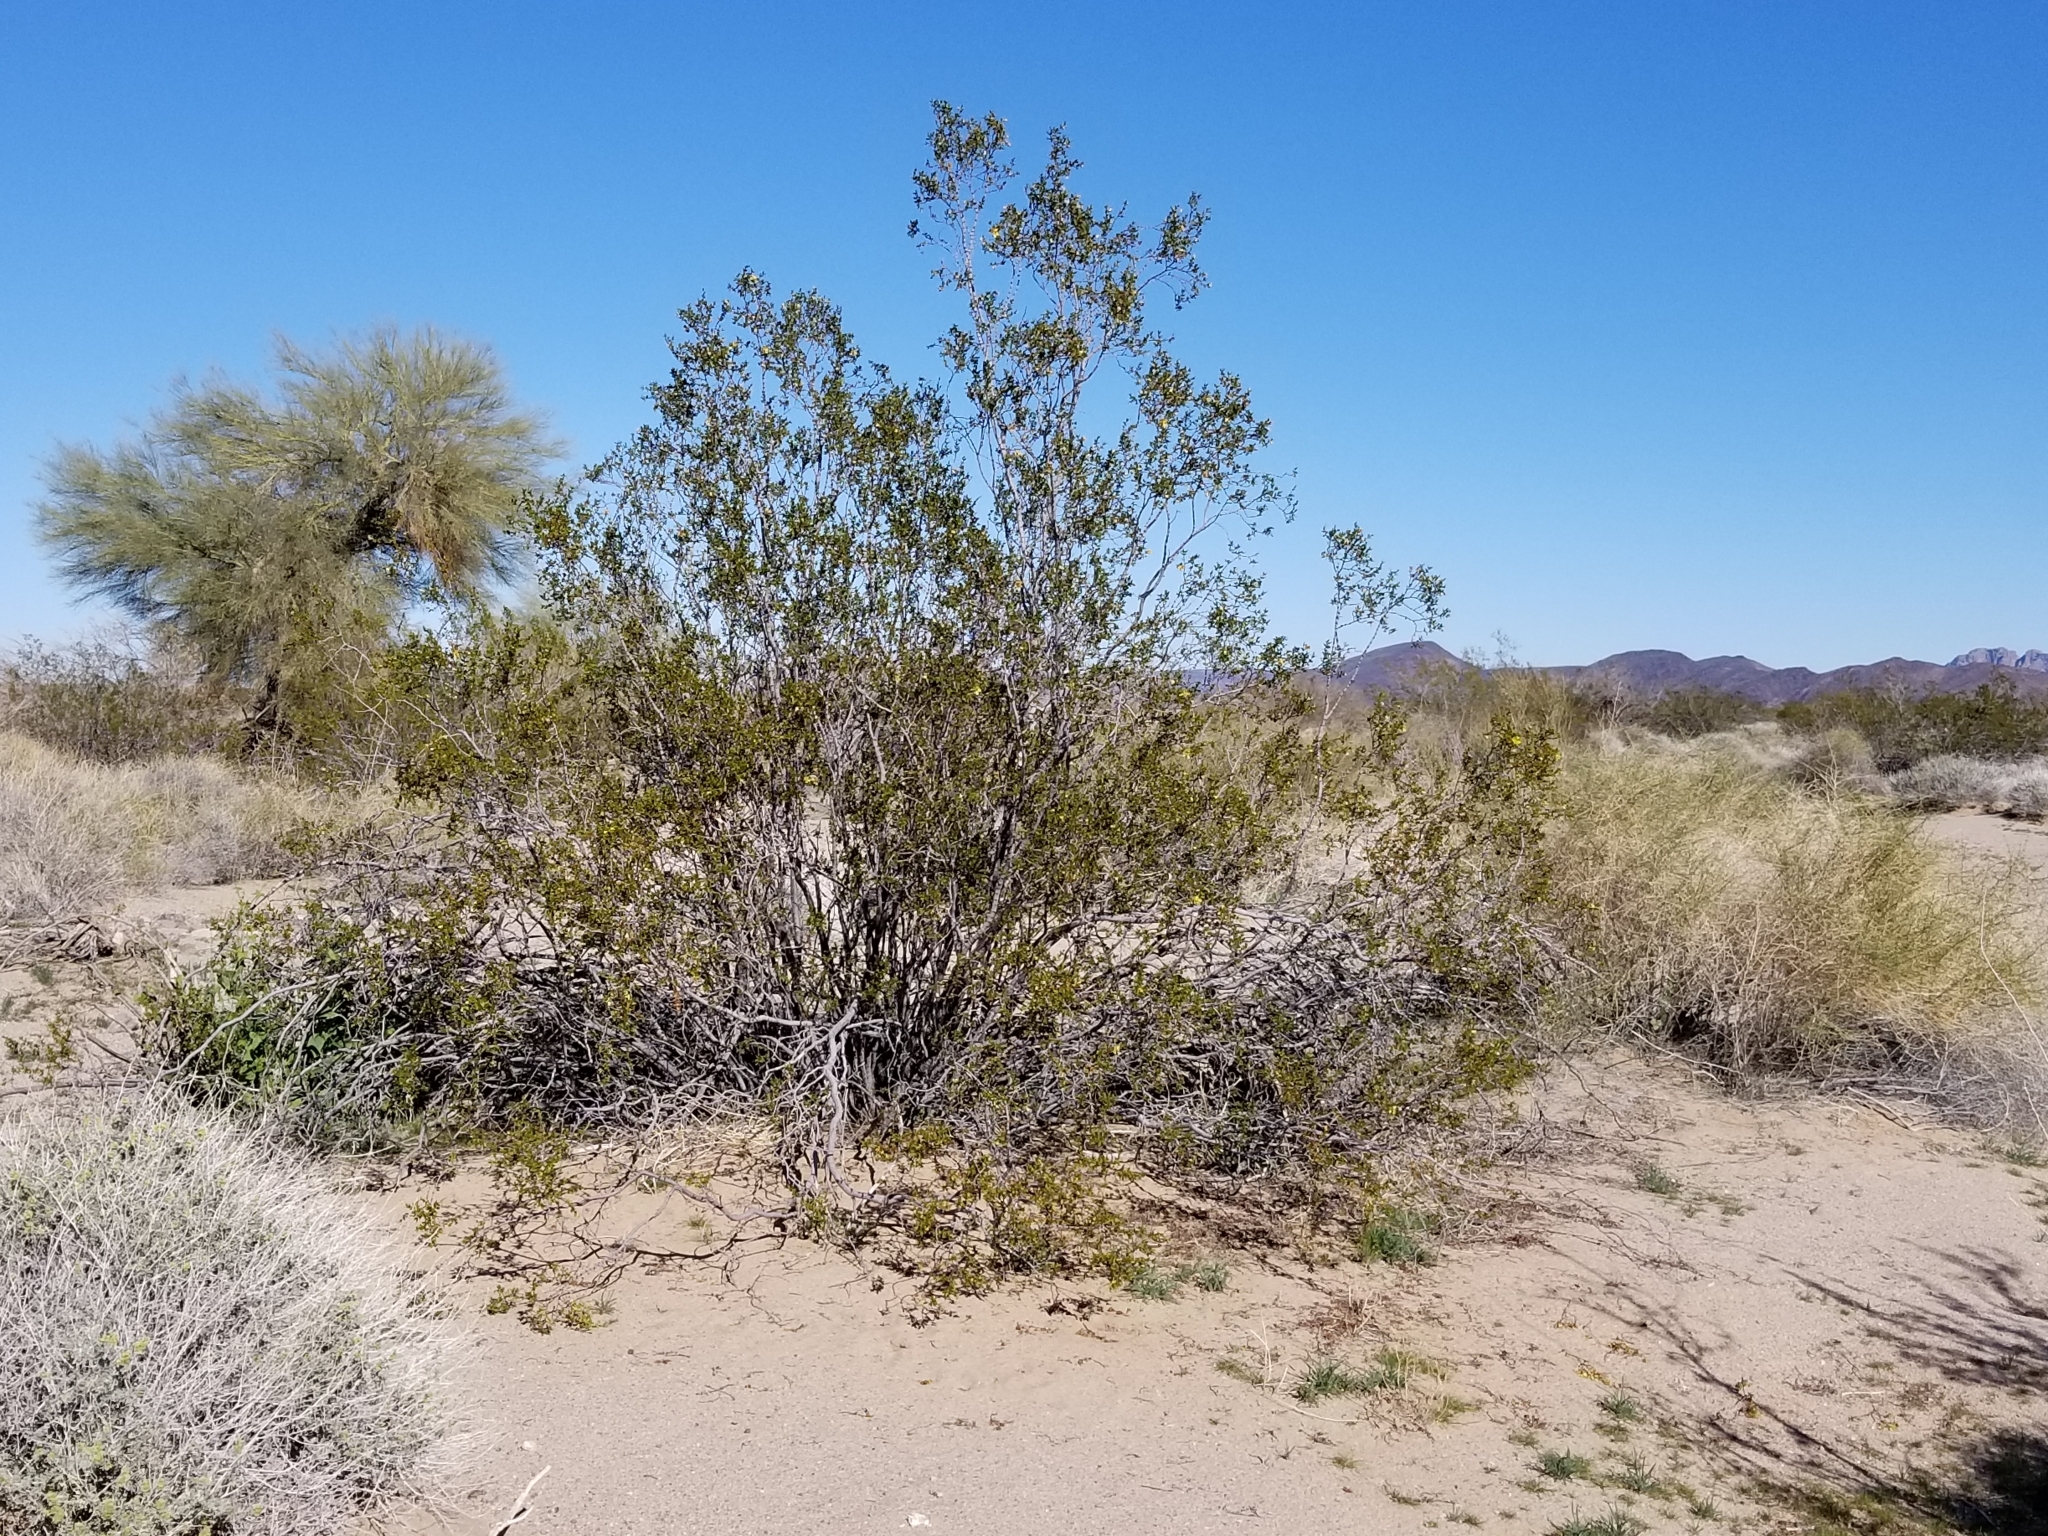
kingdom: Plantae
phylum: Tracheophyta
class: Magnoliopsida
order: Zygophyllales
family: Zygophyllaceae
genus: Larrea
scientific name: Larrea tridentata
